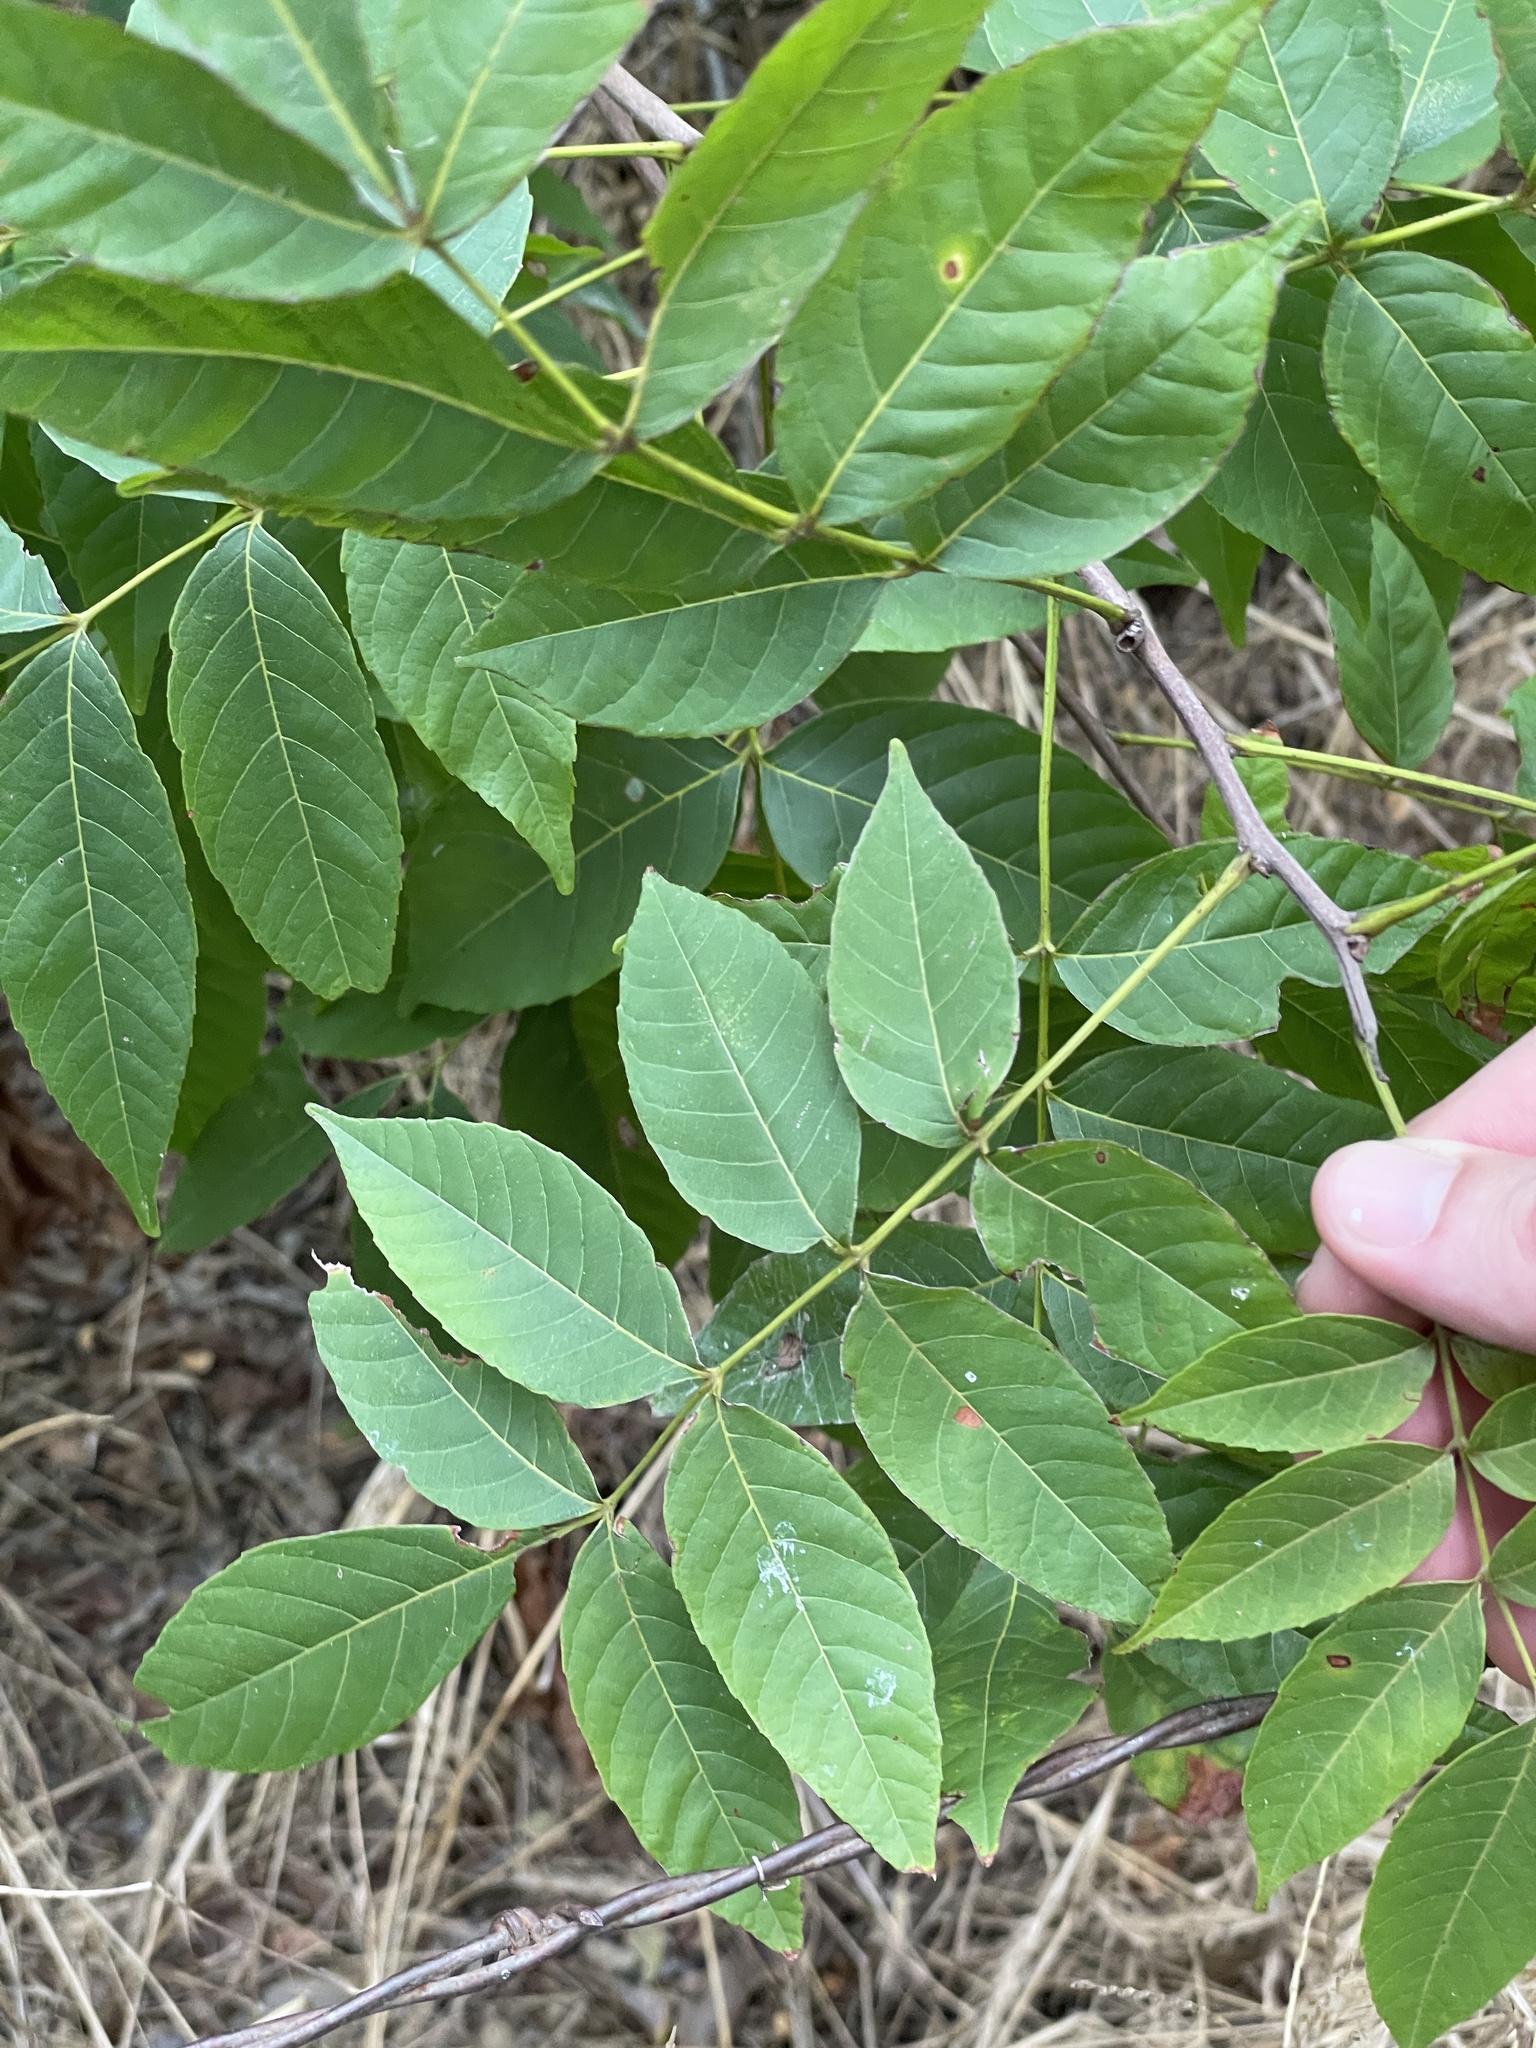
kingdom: Plantae
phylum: Tracheophyta
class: Magnoliopsida
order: Sapindales
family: Sapindaceae
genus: Ungnadia
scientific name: Ungnadia speciosa
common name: Texas-buckeye
